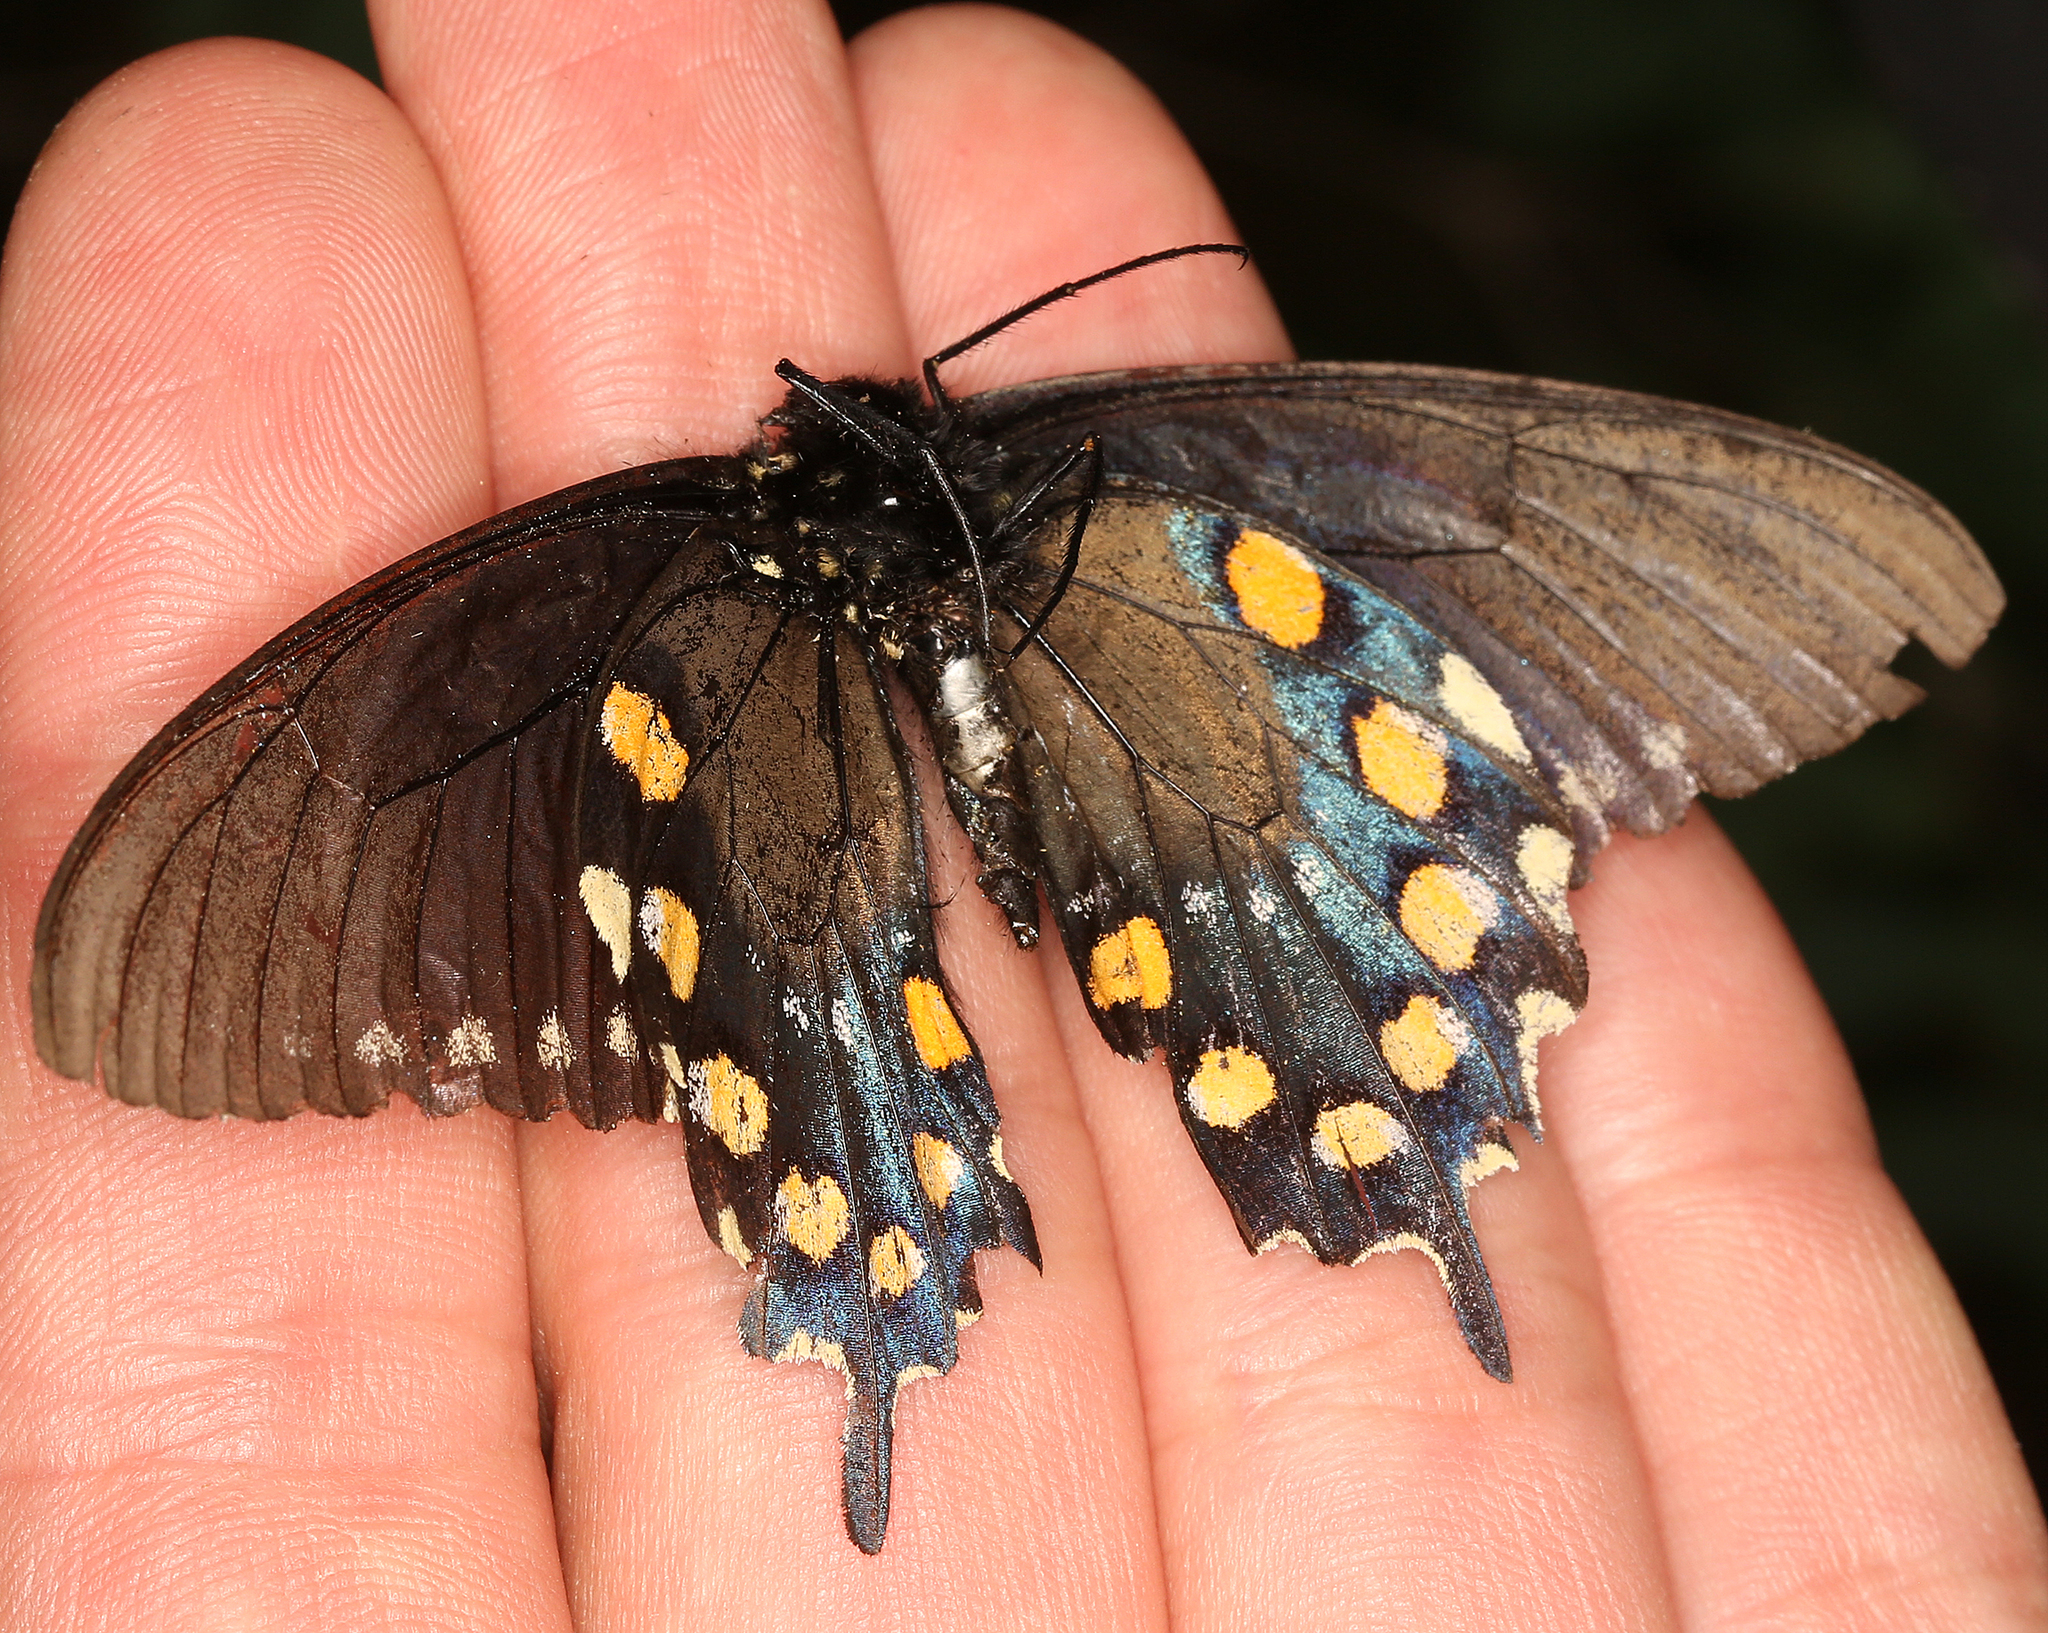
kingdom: Animalia
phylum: Arthropoda
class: Insecta
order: Lepidoptera
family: Papilionidae
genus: Battus
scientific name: Battus philenor
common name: Pipevine swallowtail
